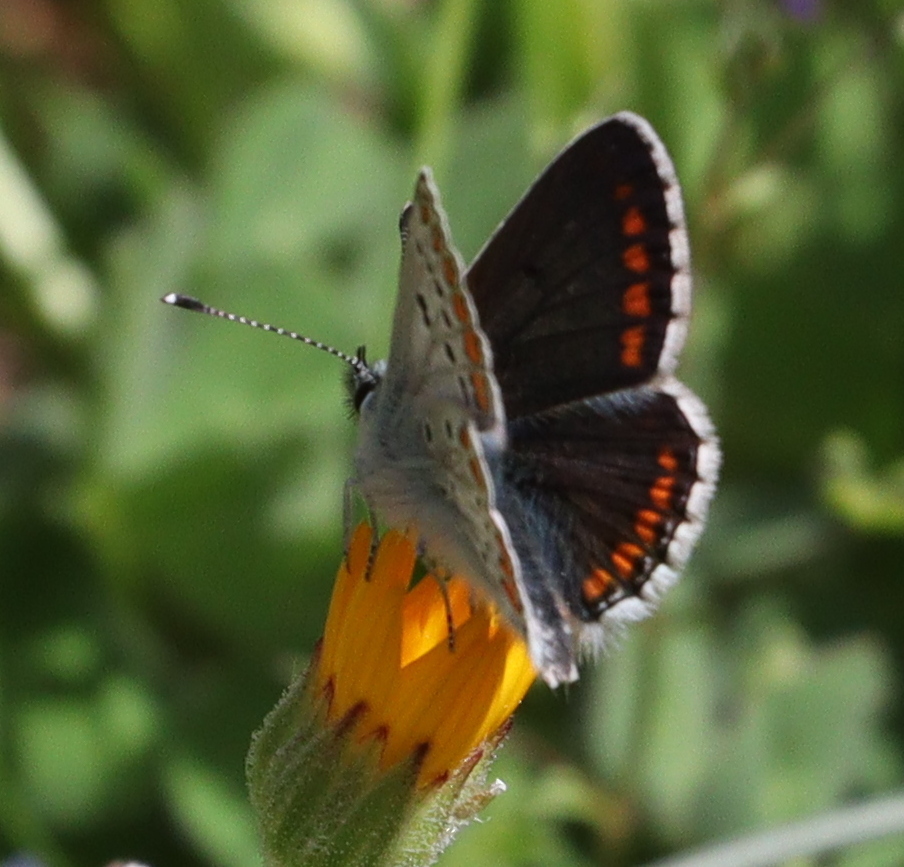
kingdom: Animalia
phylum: Arthropoda
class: Insecta
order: Lepidoptera
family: Lycaenidae
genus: Aricia
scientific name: Aricia agestis
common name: Brown argus
